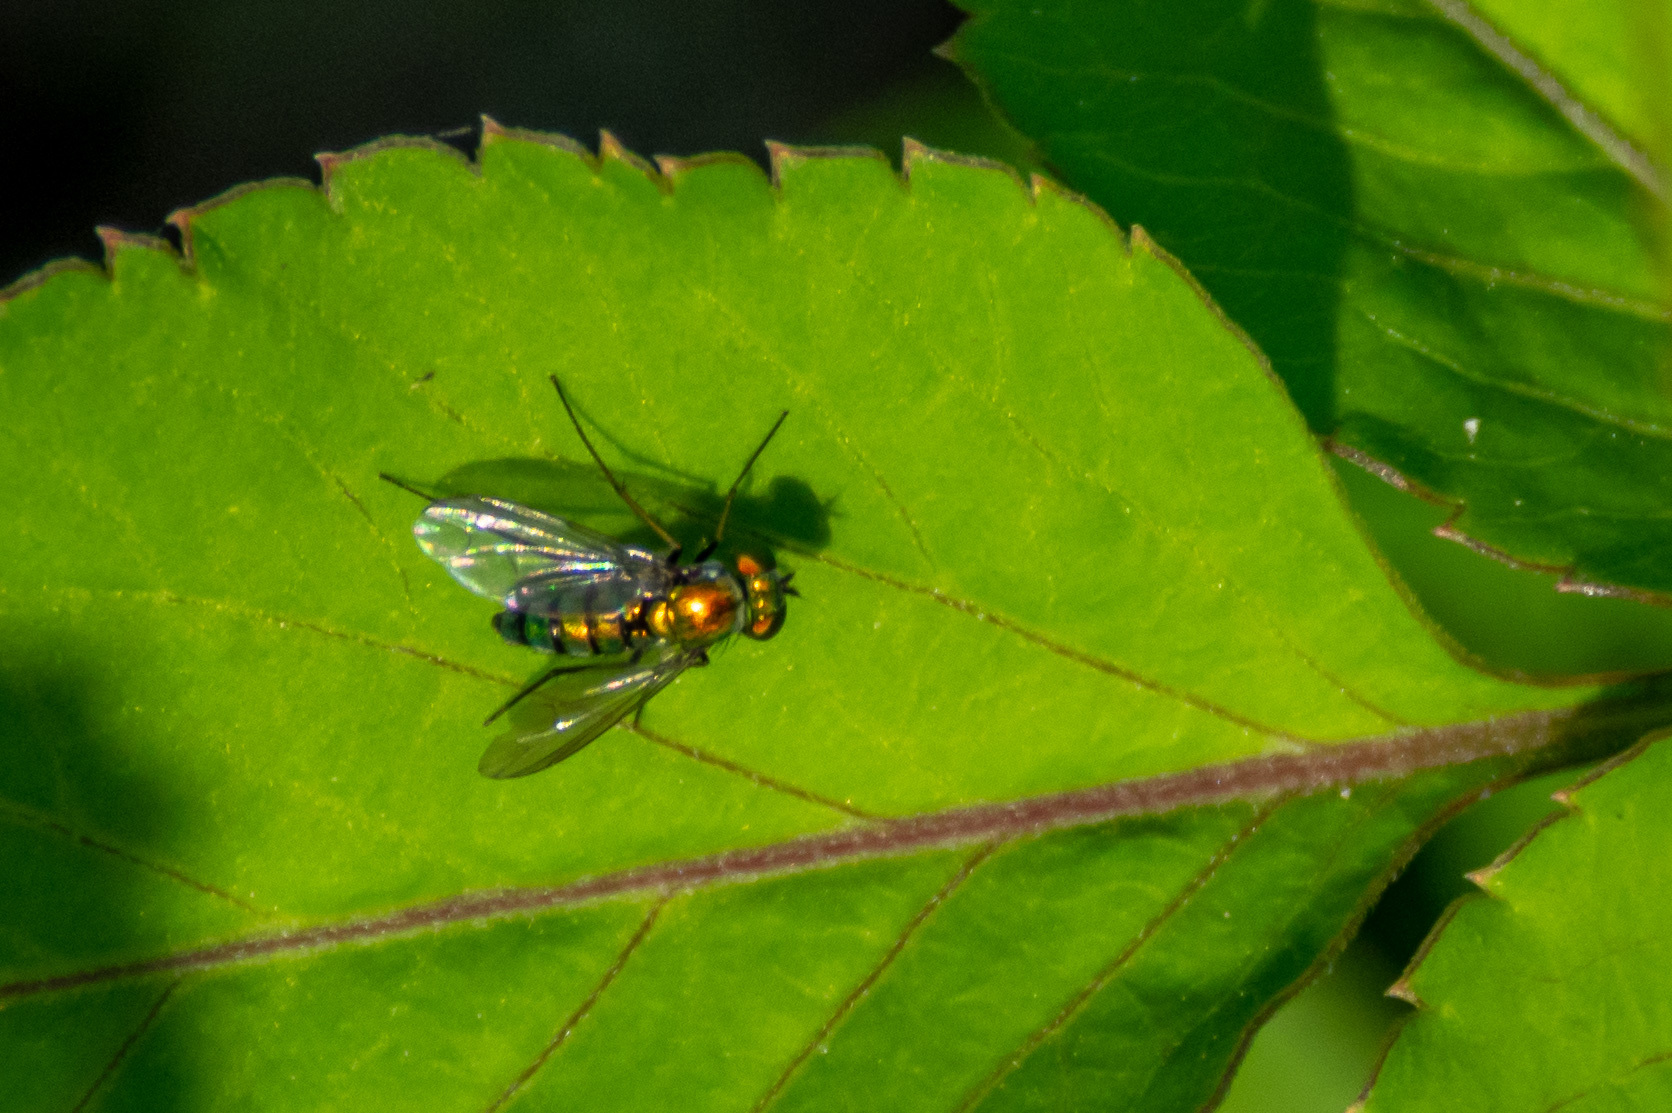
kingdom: Animalia
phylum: Arthropoda
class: Insecta
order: Diptera
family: Dolichopodidae
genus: Condylostylus
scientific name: Condylostylus longicornis
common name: Long-legged fly
